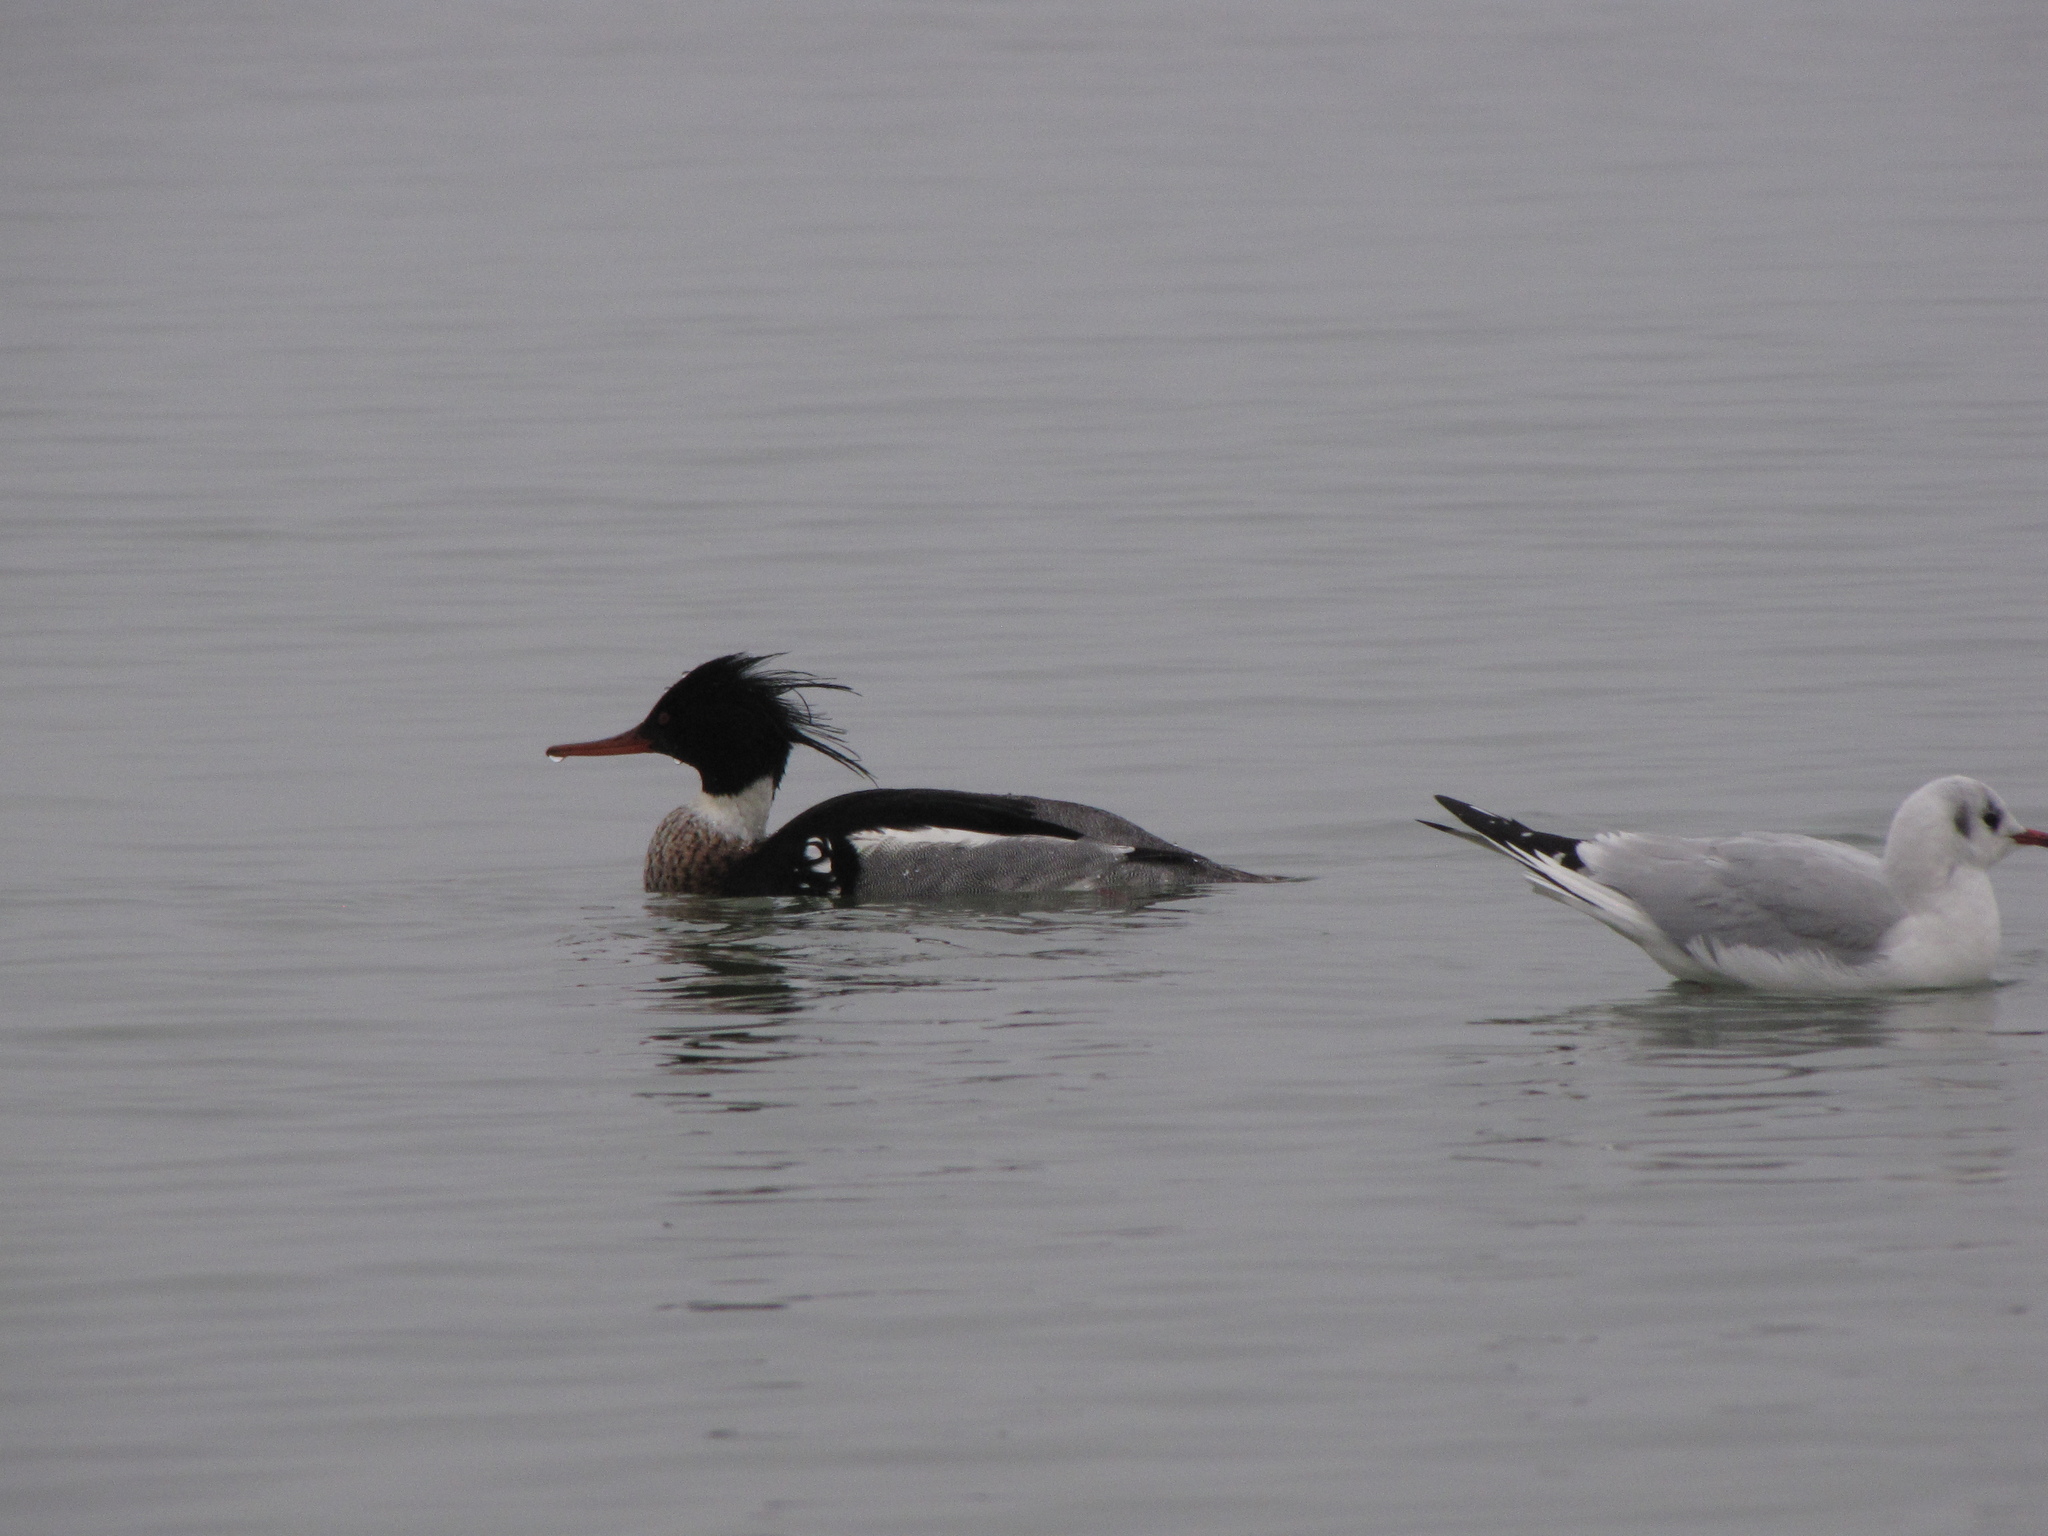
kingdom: Animalia
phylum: Chordata
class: Aves
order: Anseriformes
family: Anatidae
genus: Mergus
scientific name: Mergus serrator
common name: Red-breasted merganser
